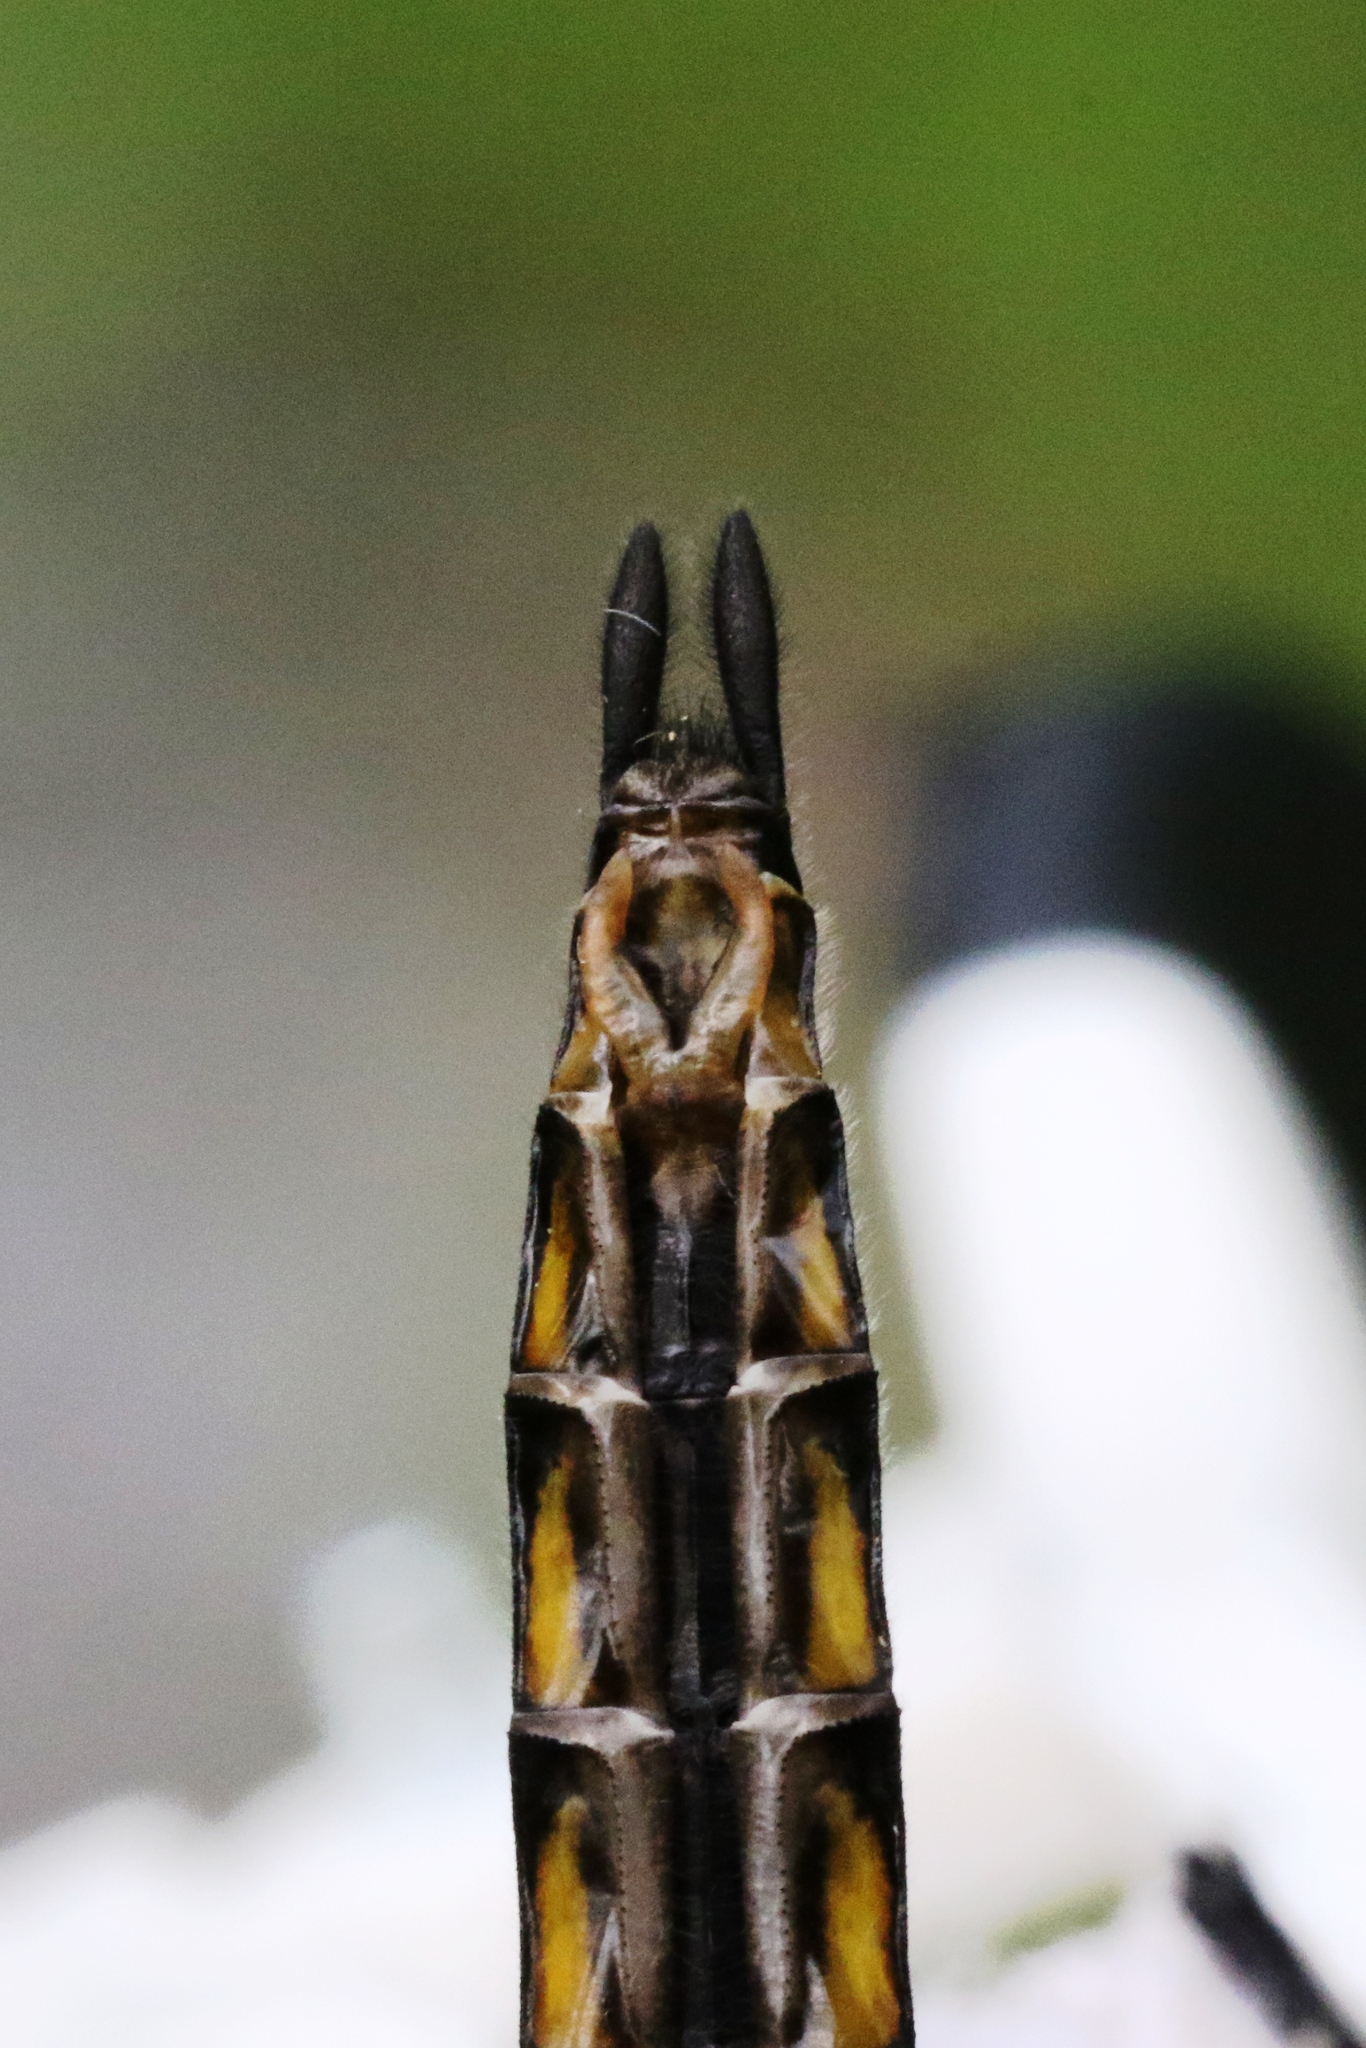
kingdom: Animalia
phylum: Arthropoda
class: Insecta
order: Odonata
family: Corduliidae
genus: Epitheca
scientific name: Epitheca spinigera
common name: Spiny baskettail
